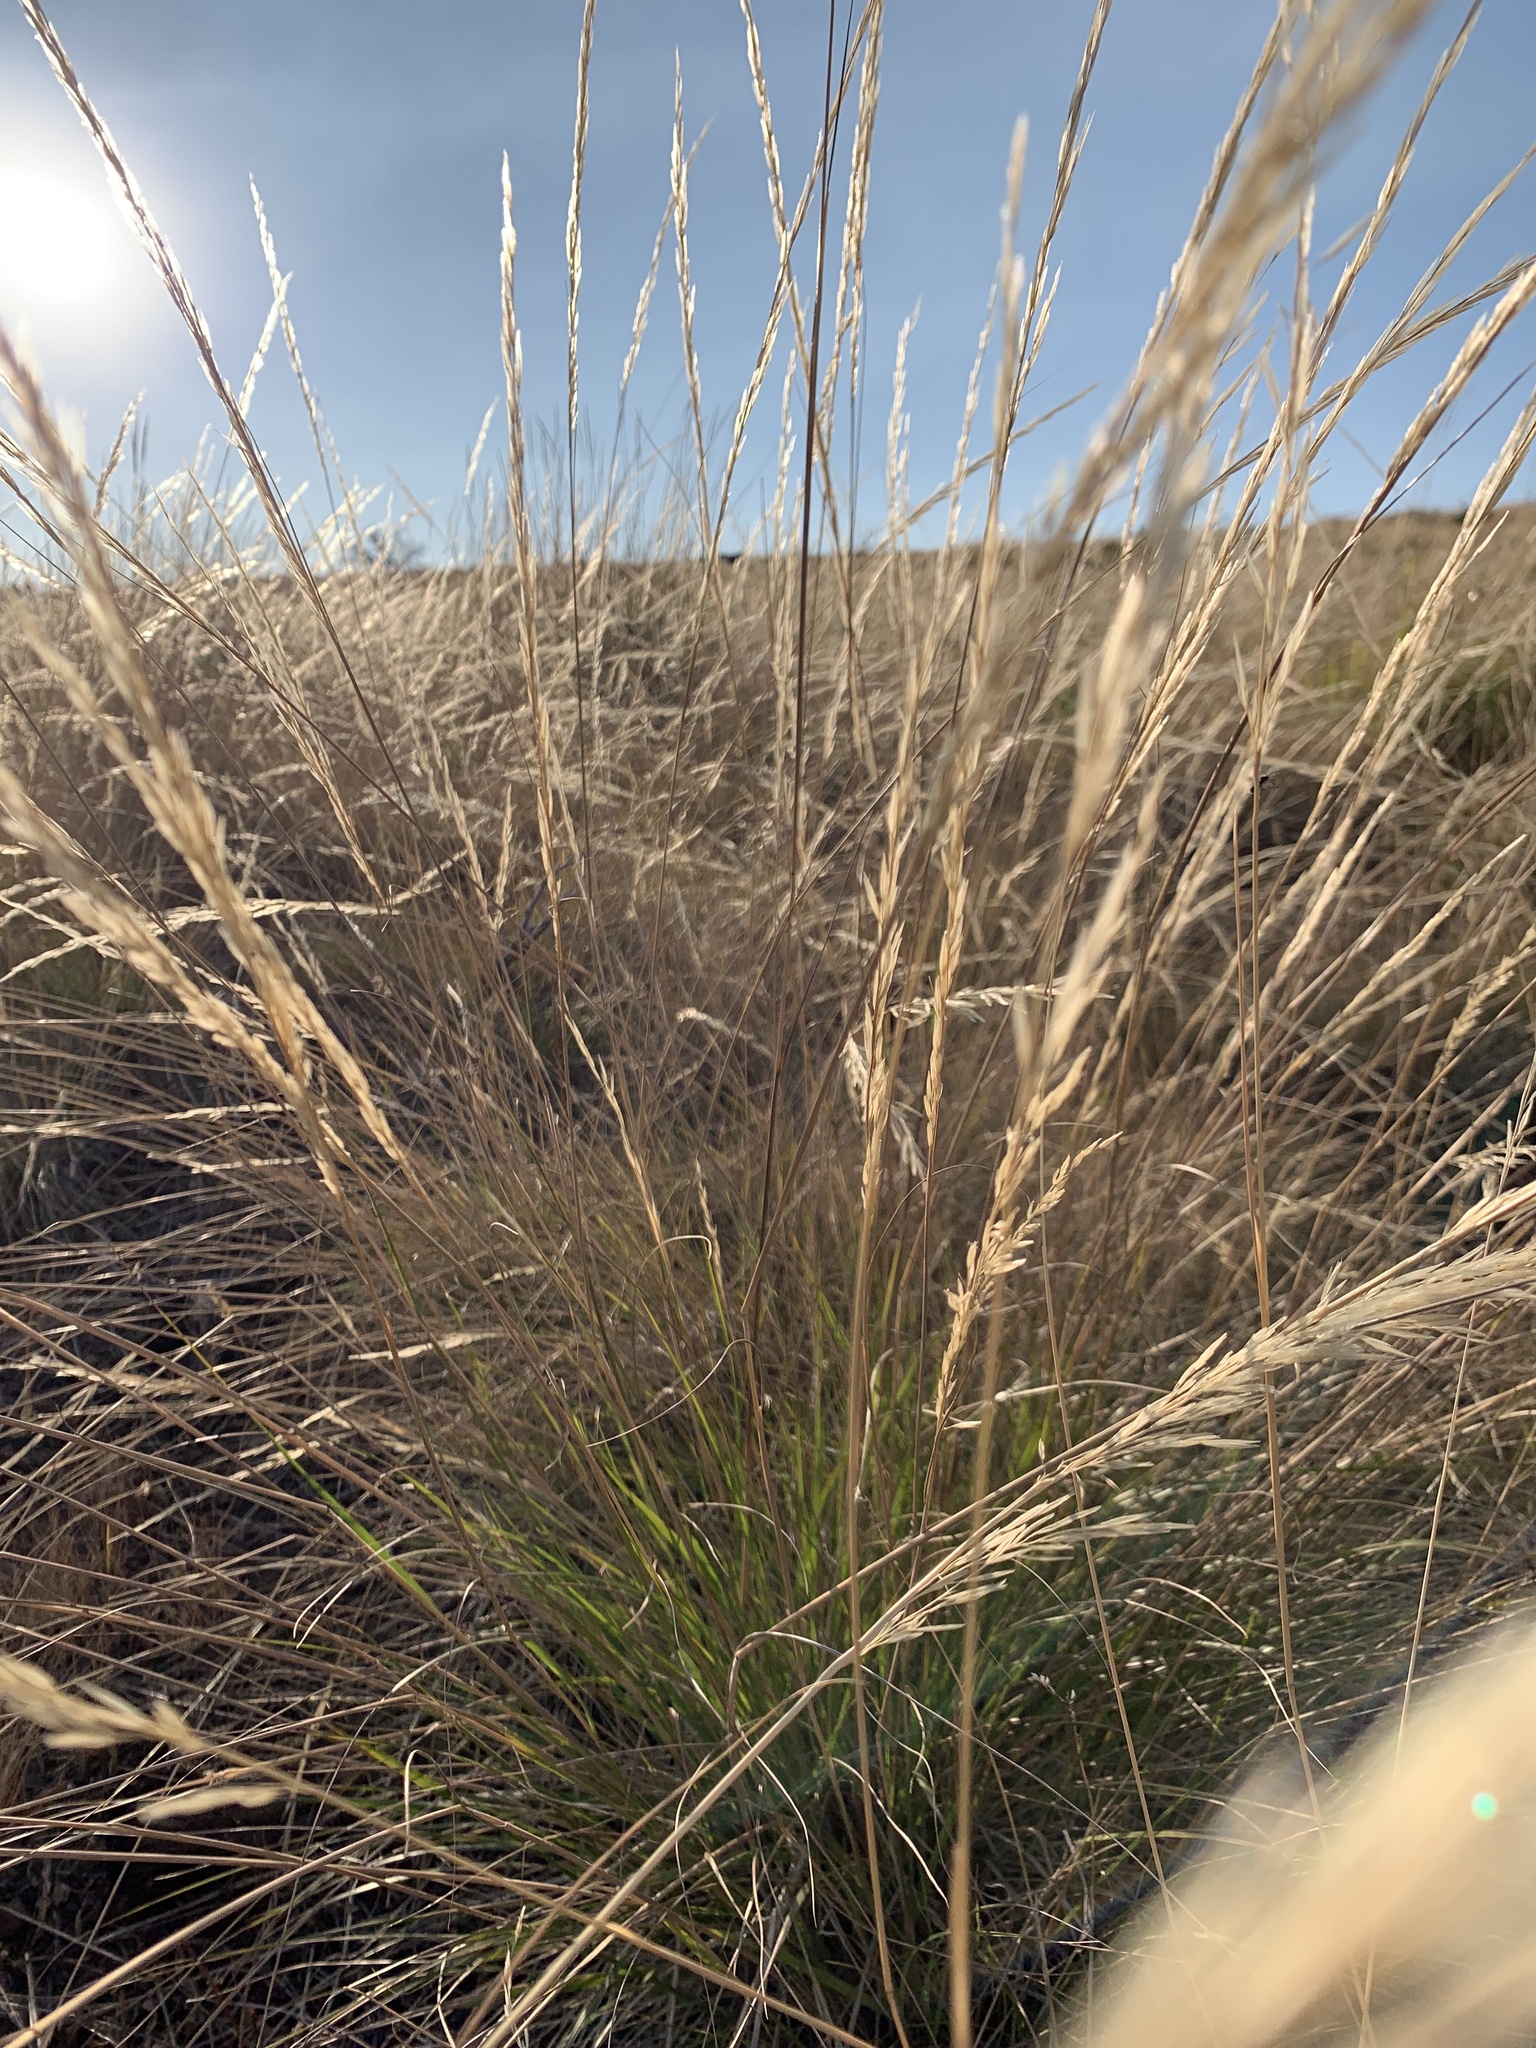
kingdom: Plantae
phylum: Tracheophyta
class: Liliopsida
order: Poales
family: Poaceae
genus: Eriocoma
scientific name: Eriocoma thurberiana
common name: Thurber's needlegrass
